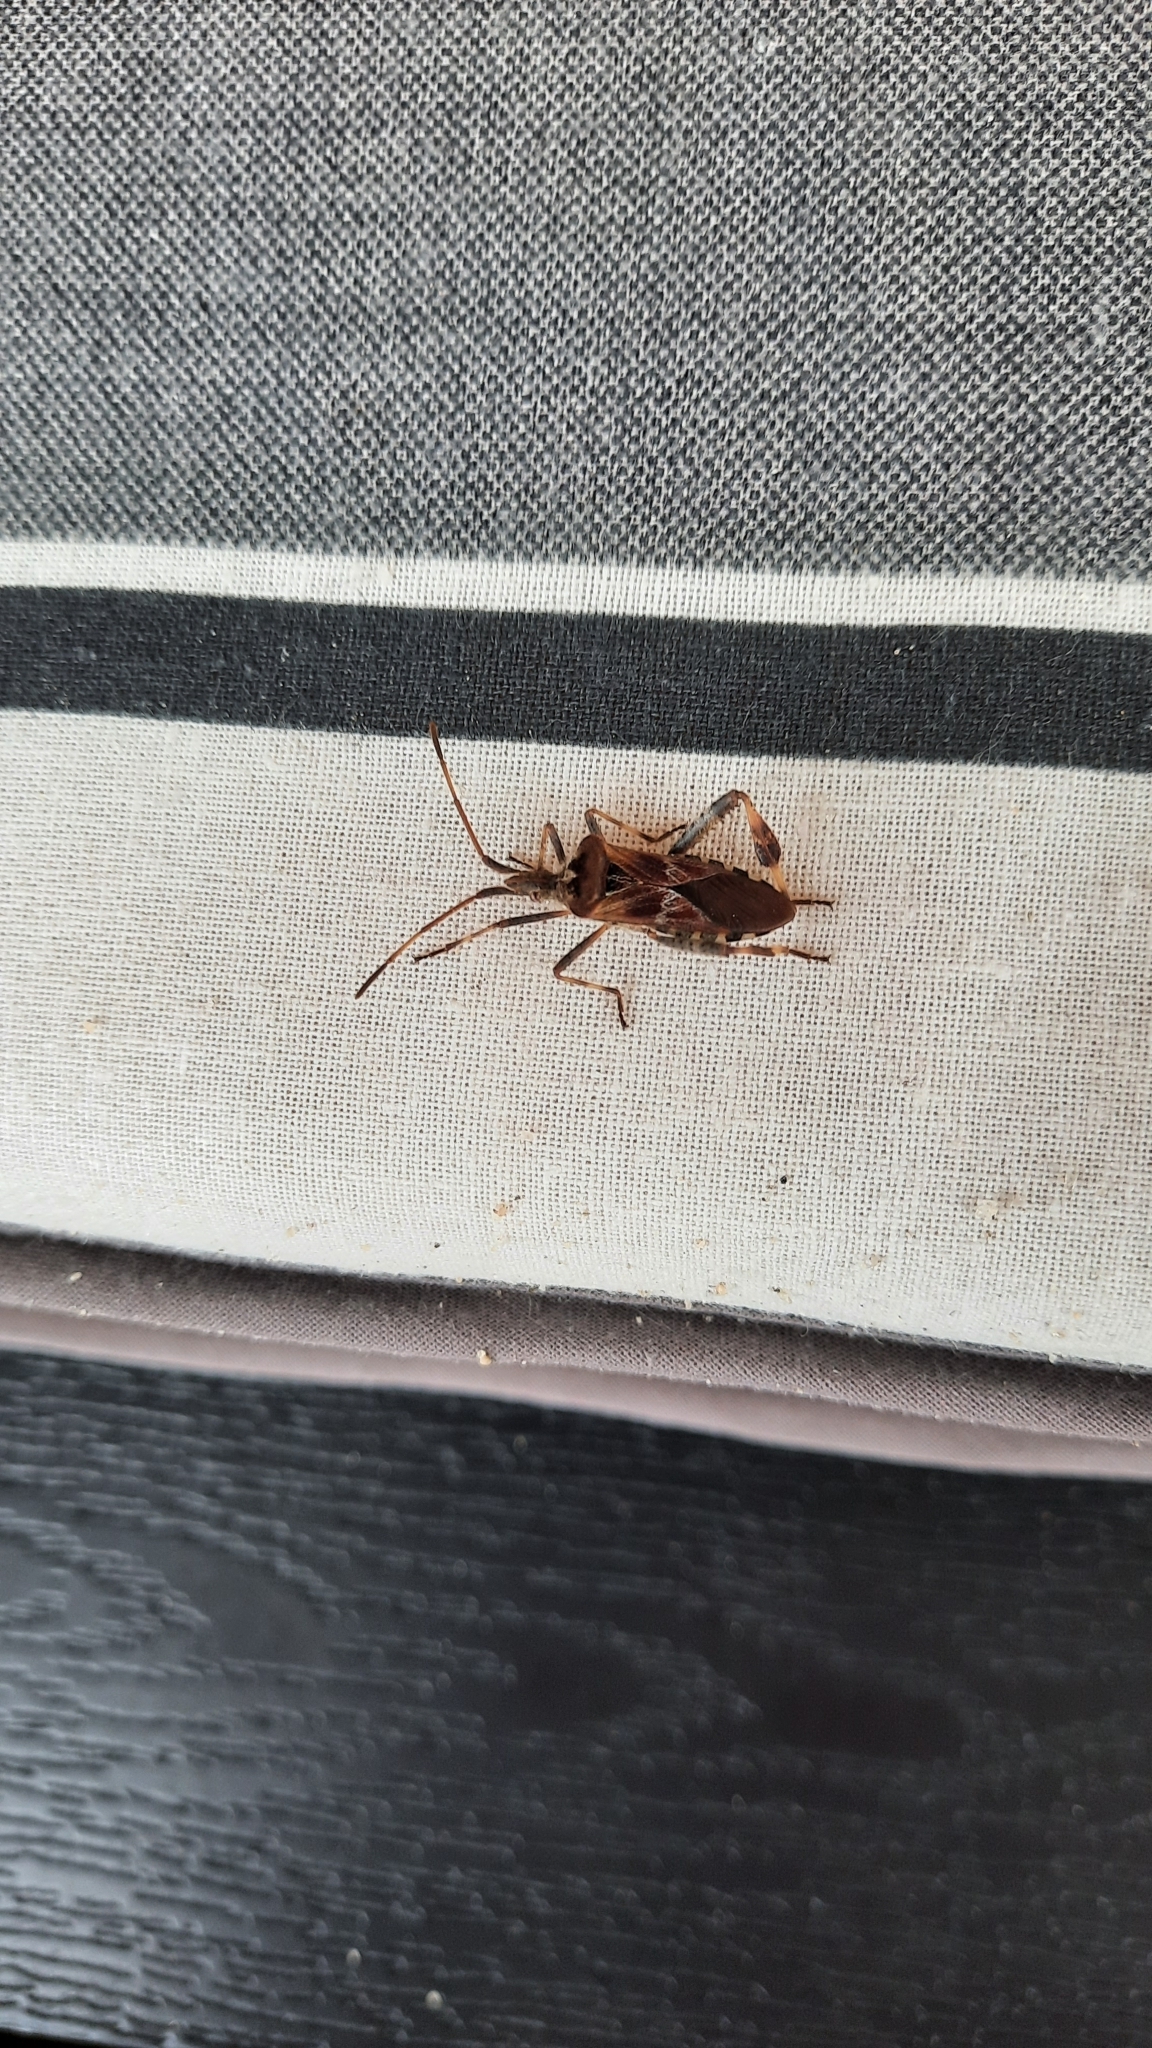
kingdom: Animalia
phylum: Arthropoda
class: Insecta
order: Hemiptera
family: Coreidae
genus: Leptoglossus
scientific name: Leptoglossus occidentalis
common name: Western conifer-seed bug
